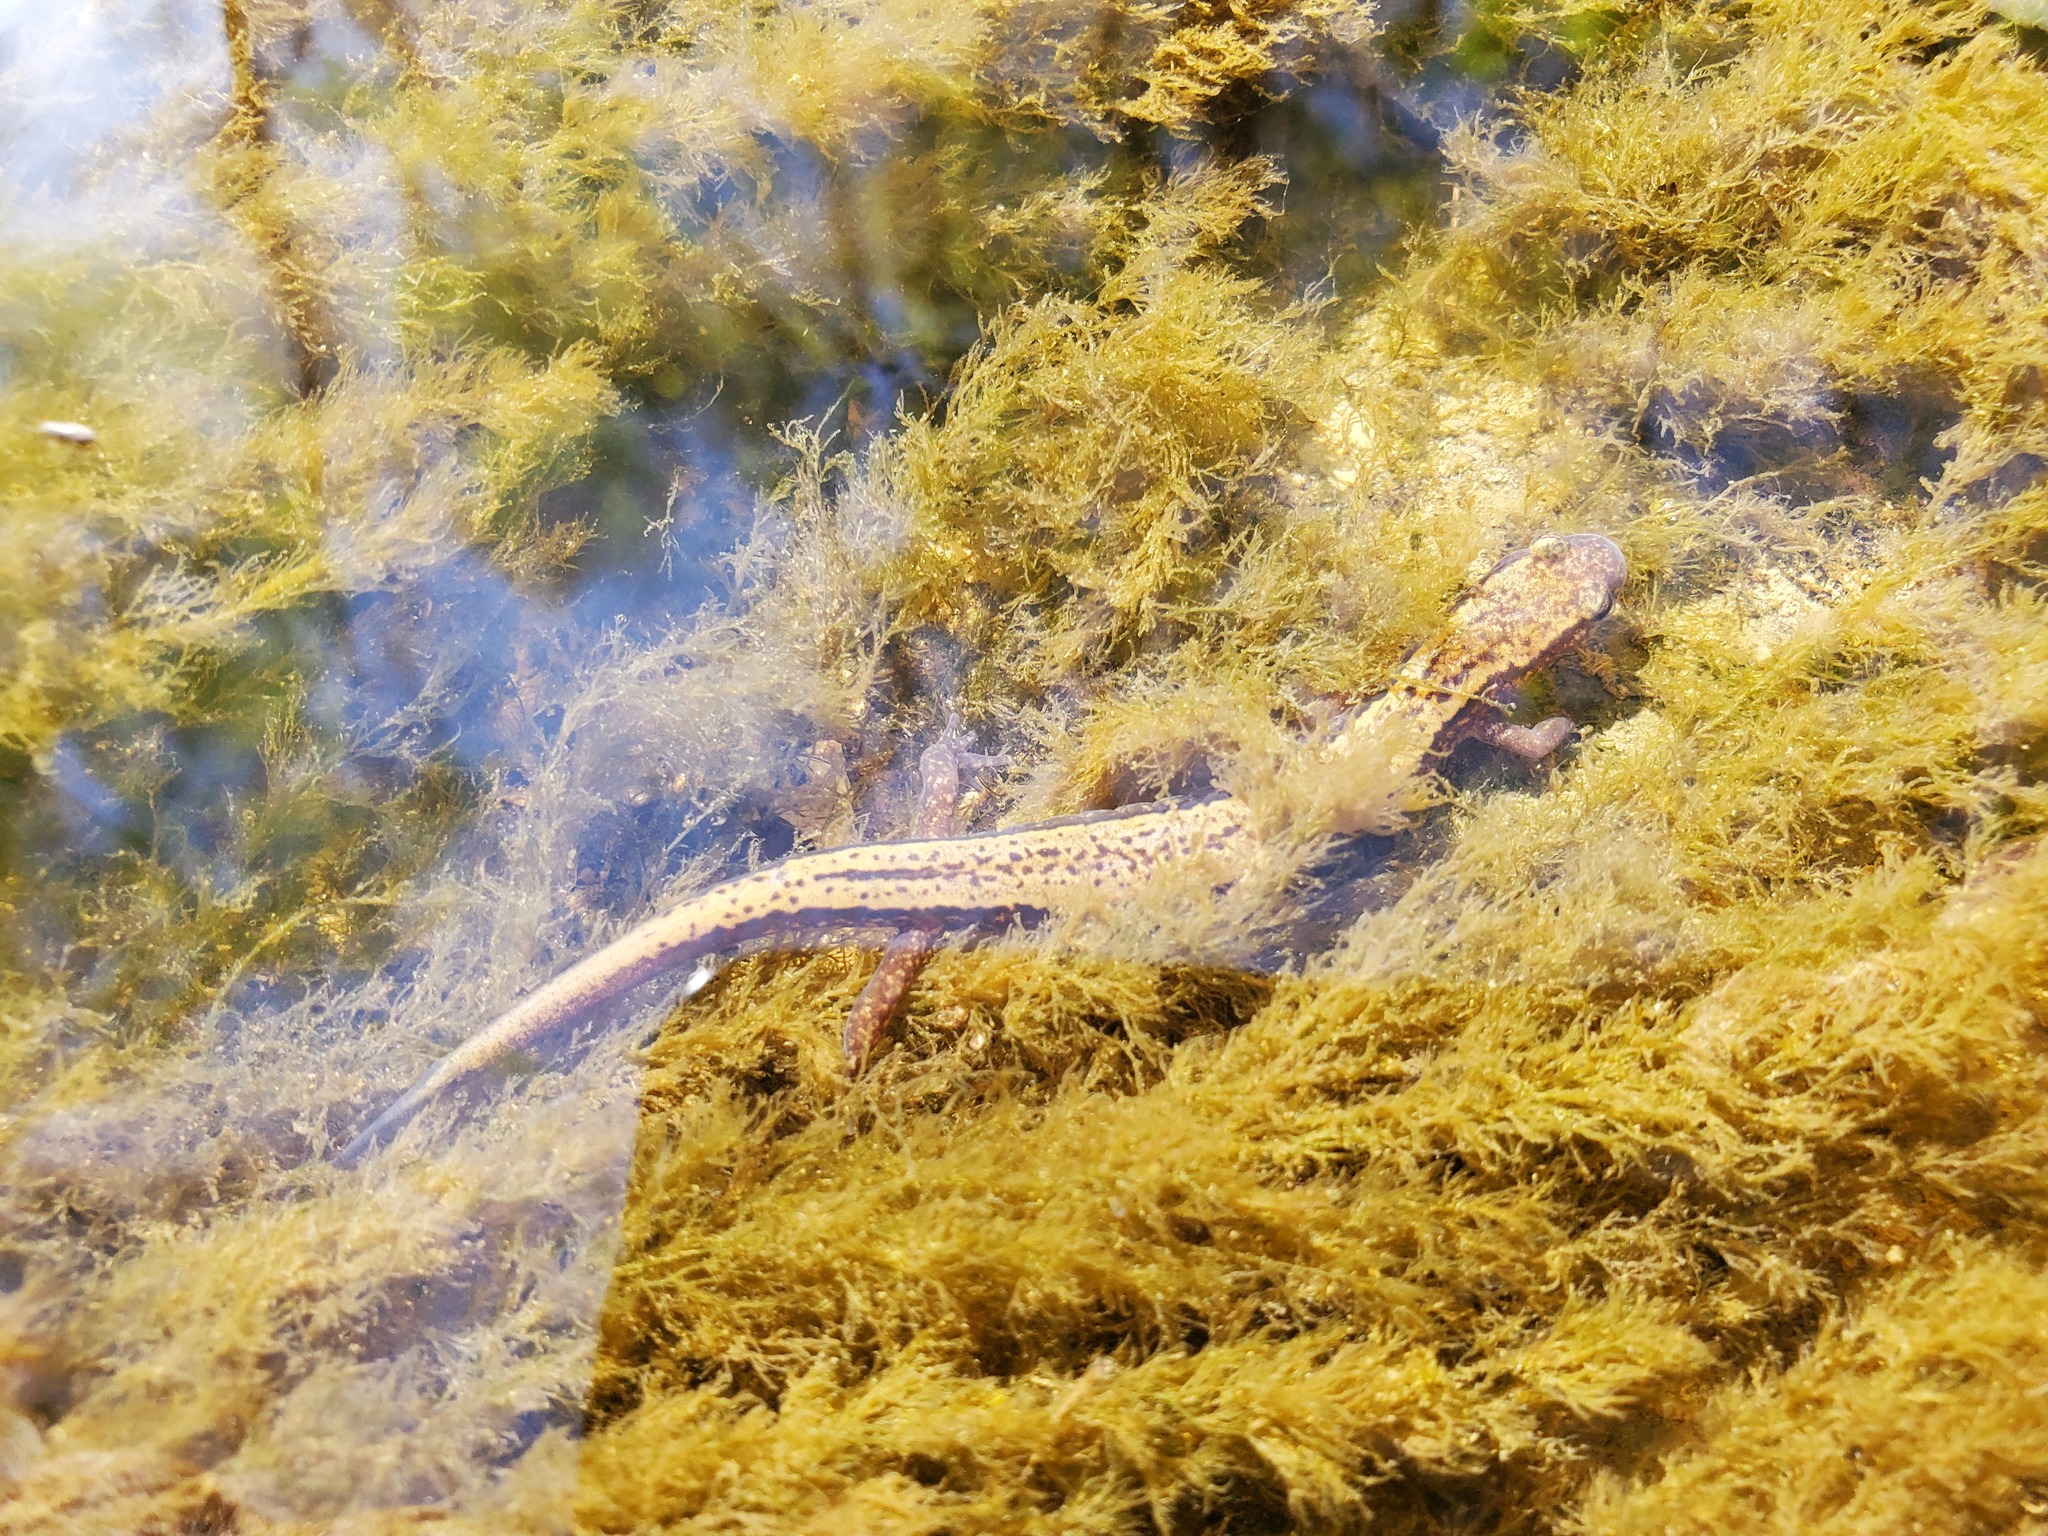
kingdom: Animalia
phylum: Chordata
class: Amphibia
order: Caudata
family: Plethodontidae
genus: Eurycea
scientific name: Eurycea cirrigera
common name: Southern two-lined salamander
